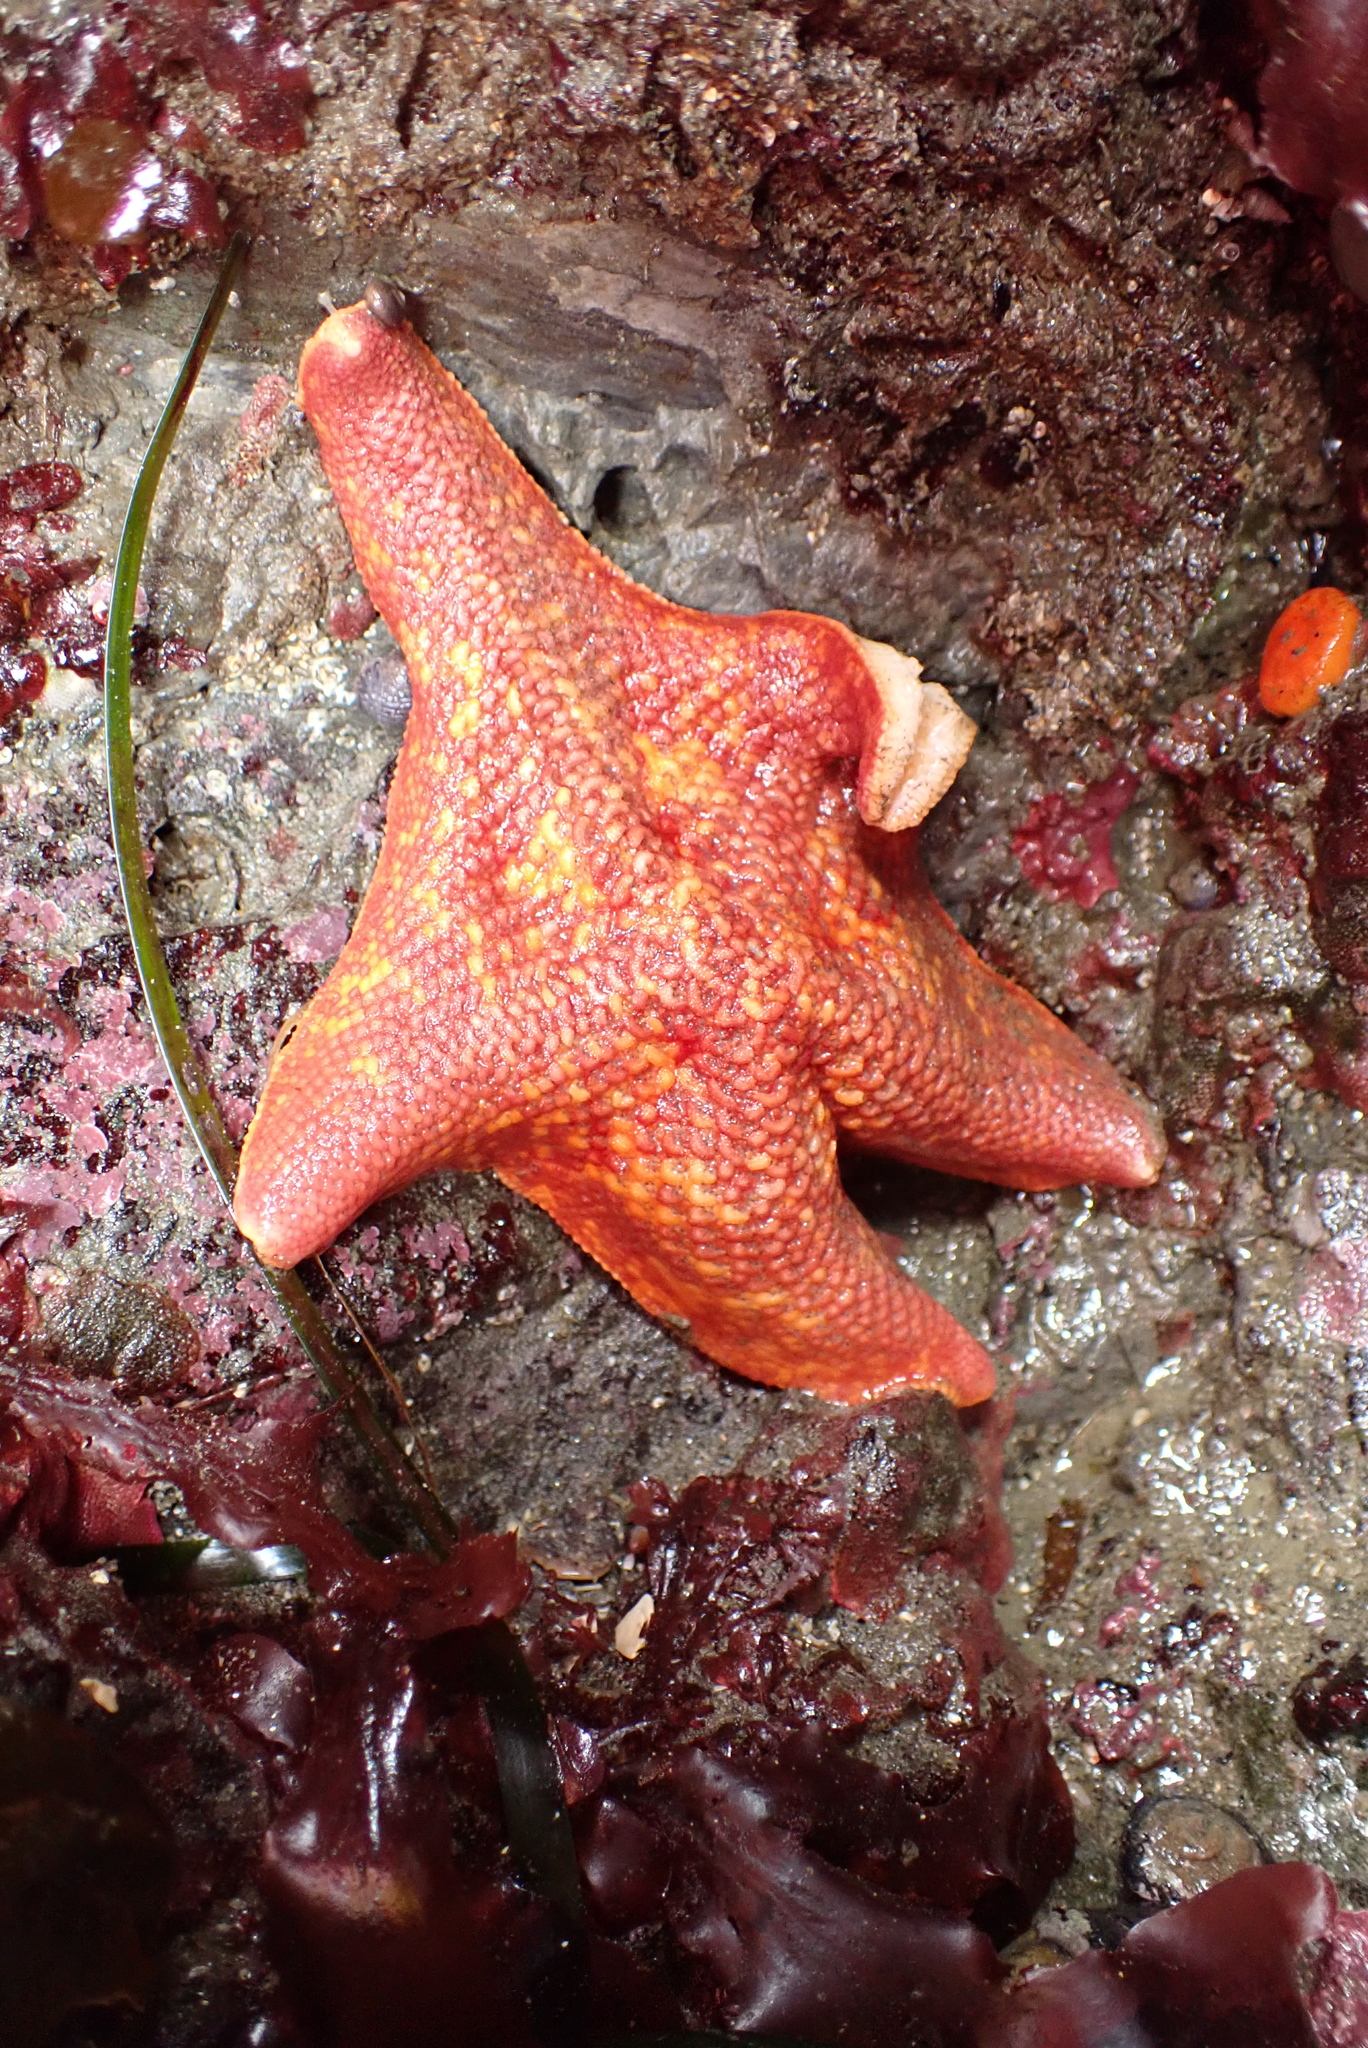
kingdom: Animalia
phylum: Echinodermata
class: Asteroidea
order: Valvatida
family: Asterinidae
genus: Patiria
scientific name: Patiria miniata
